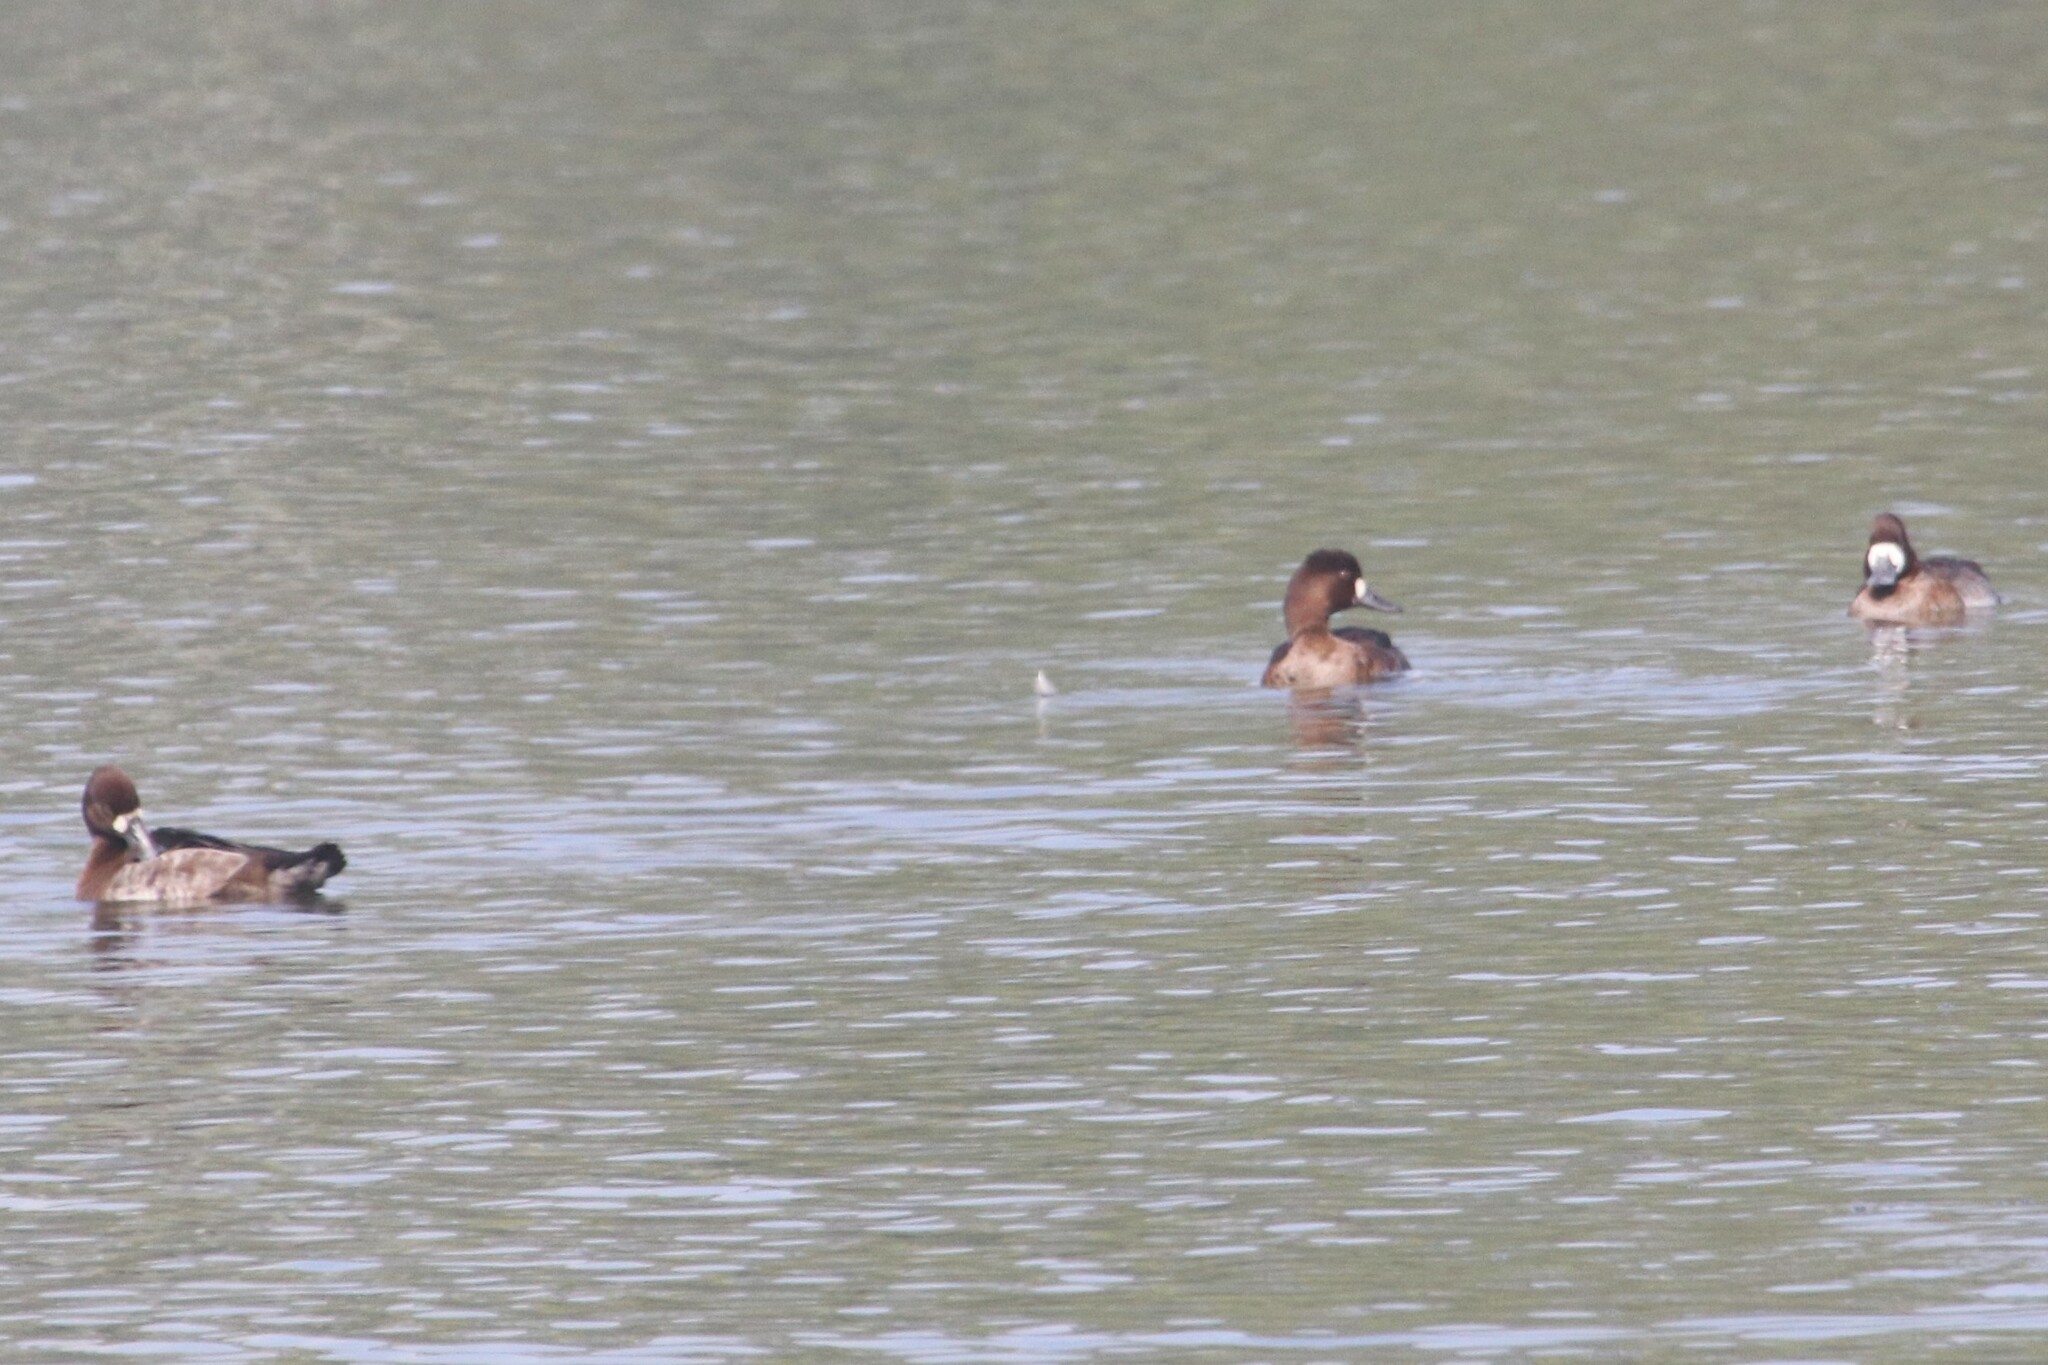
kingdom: Animalia
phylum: Chordata
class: Aves
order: Anseriformes
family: Anatidae
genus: Aythya
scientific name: Aythya affinis
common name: Lesser scaup
